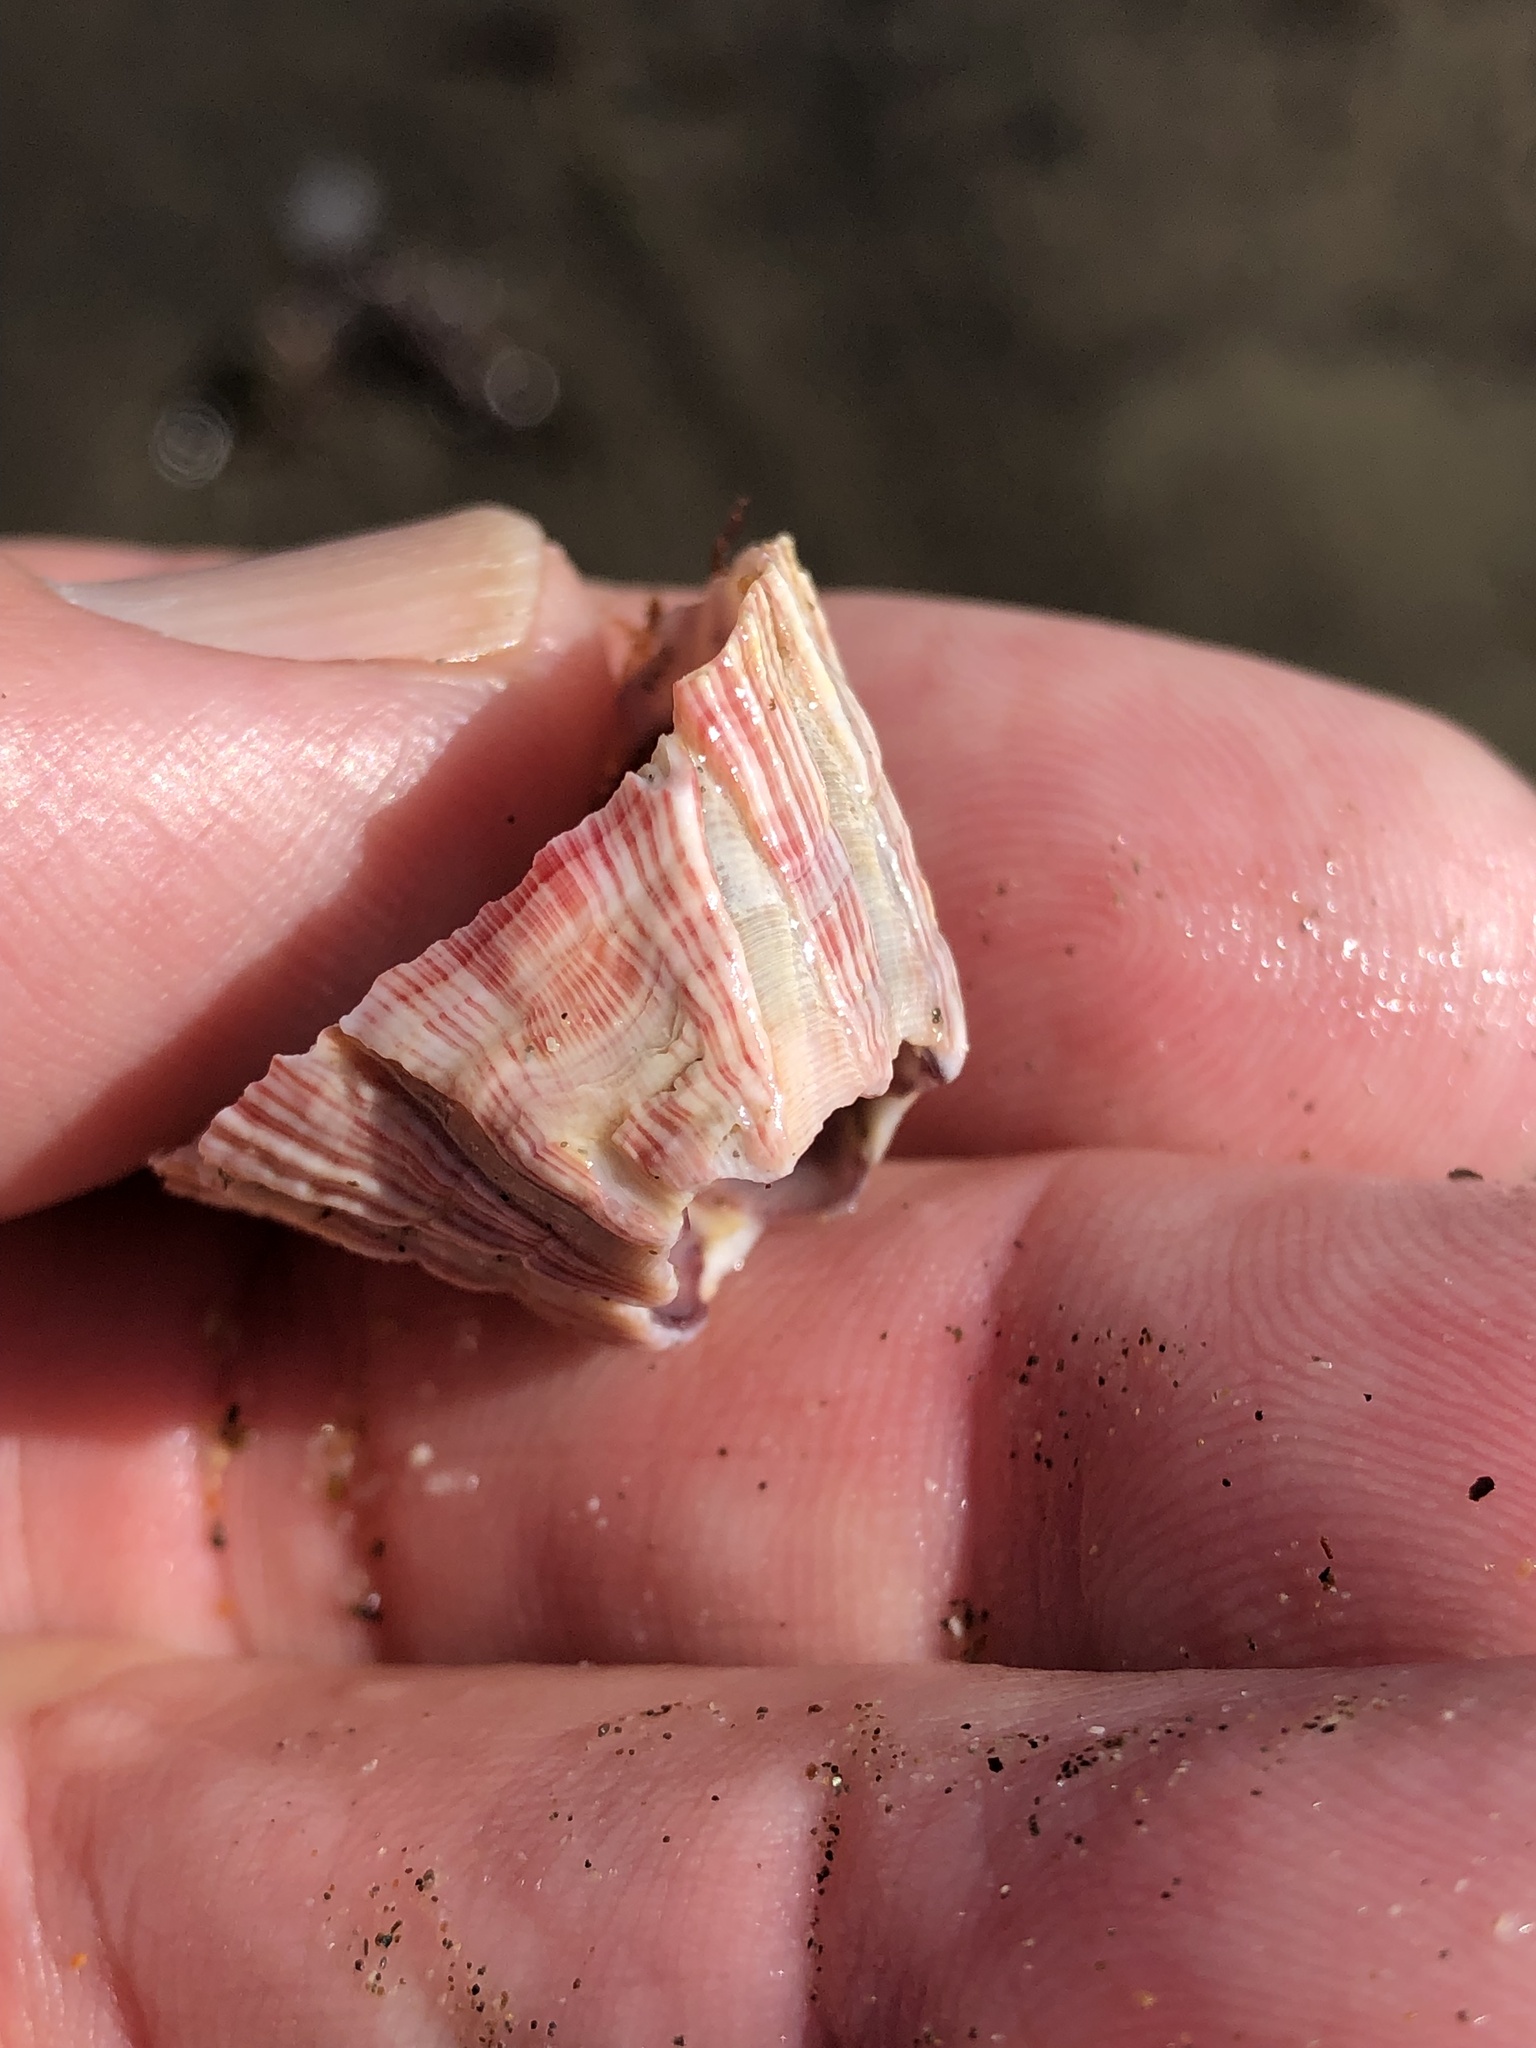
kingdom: Animalia
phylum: Arthropoda
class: Maxillopoda
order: Sessilia
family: Balanidae
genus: Megabalanus
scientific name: Megabalanus californicus
